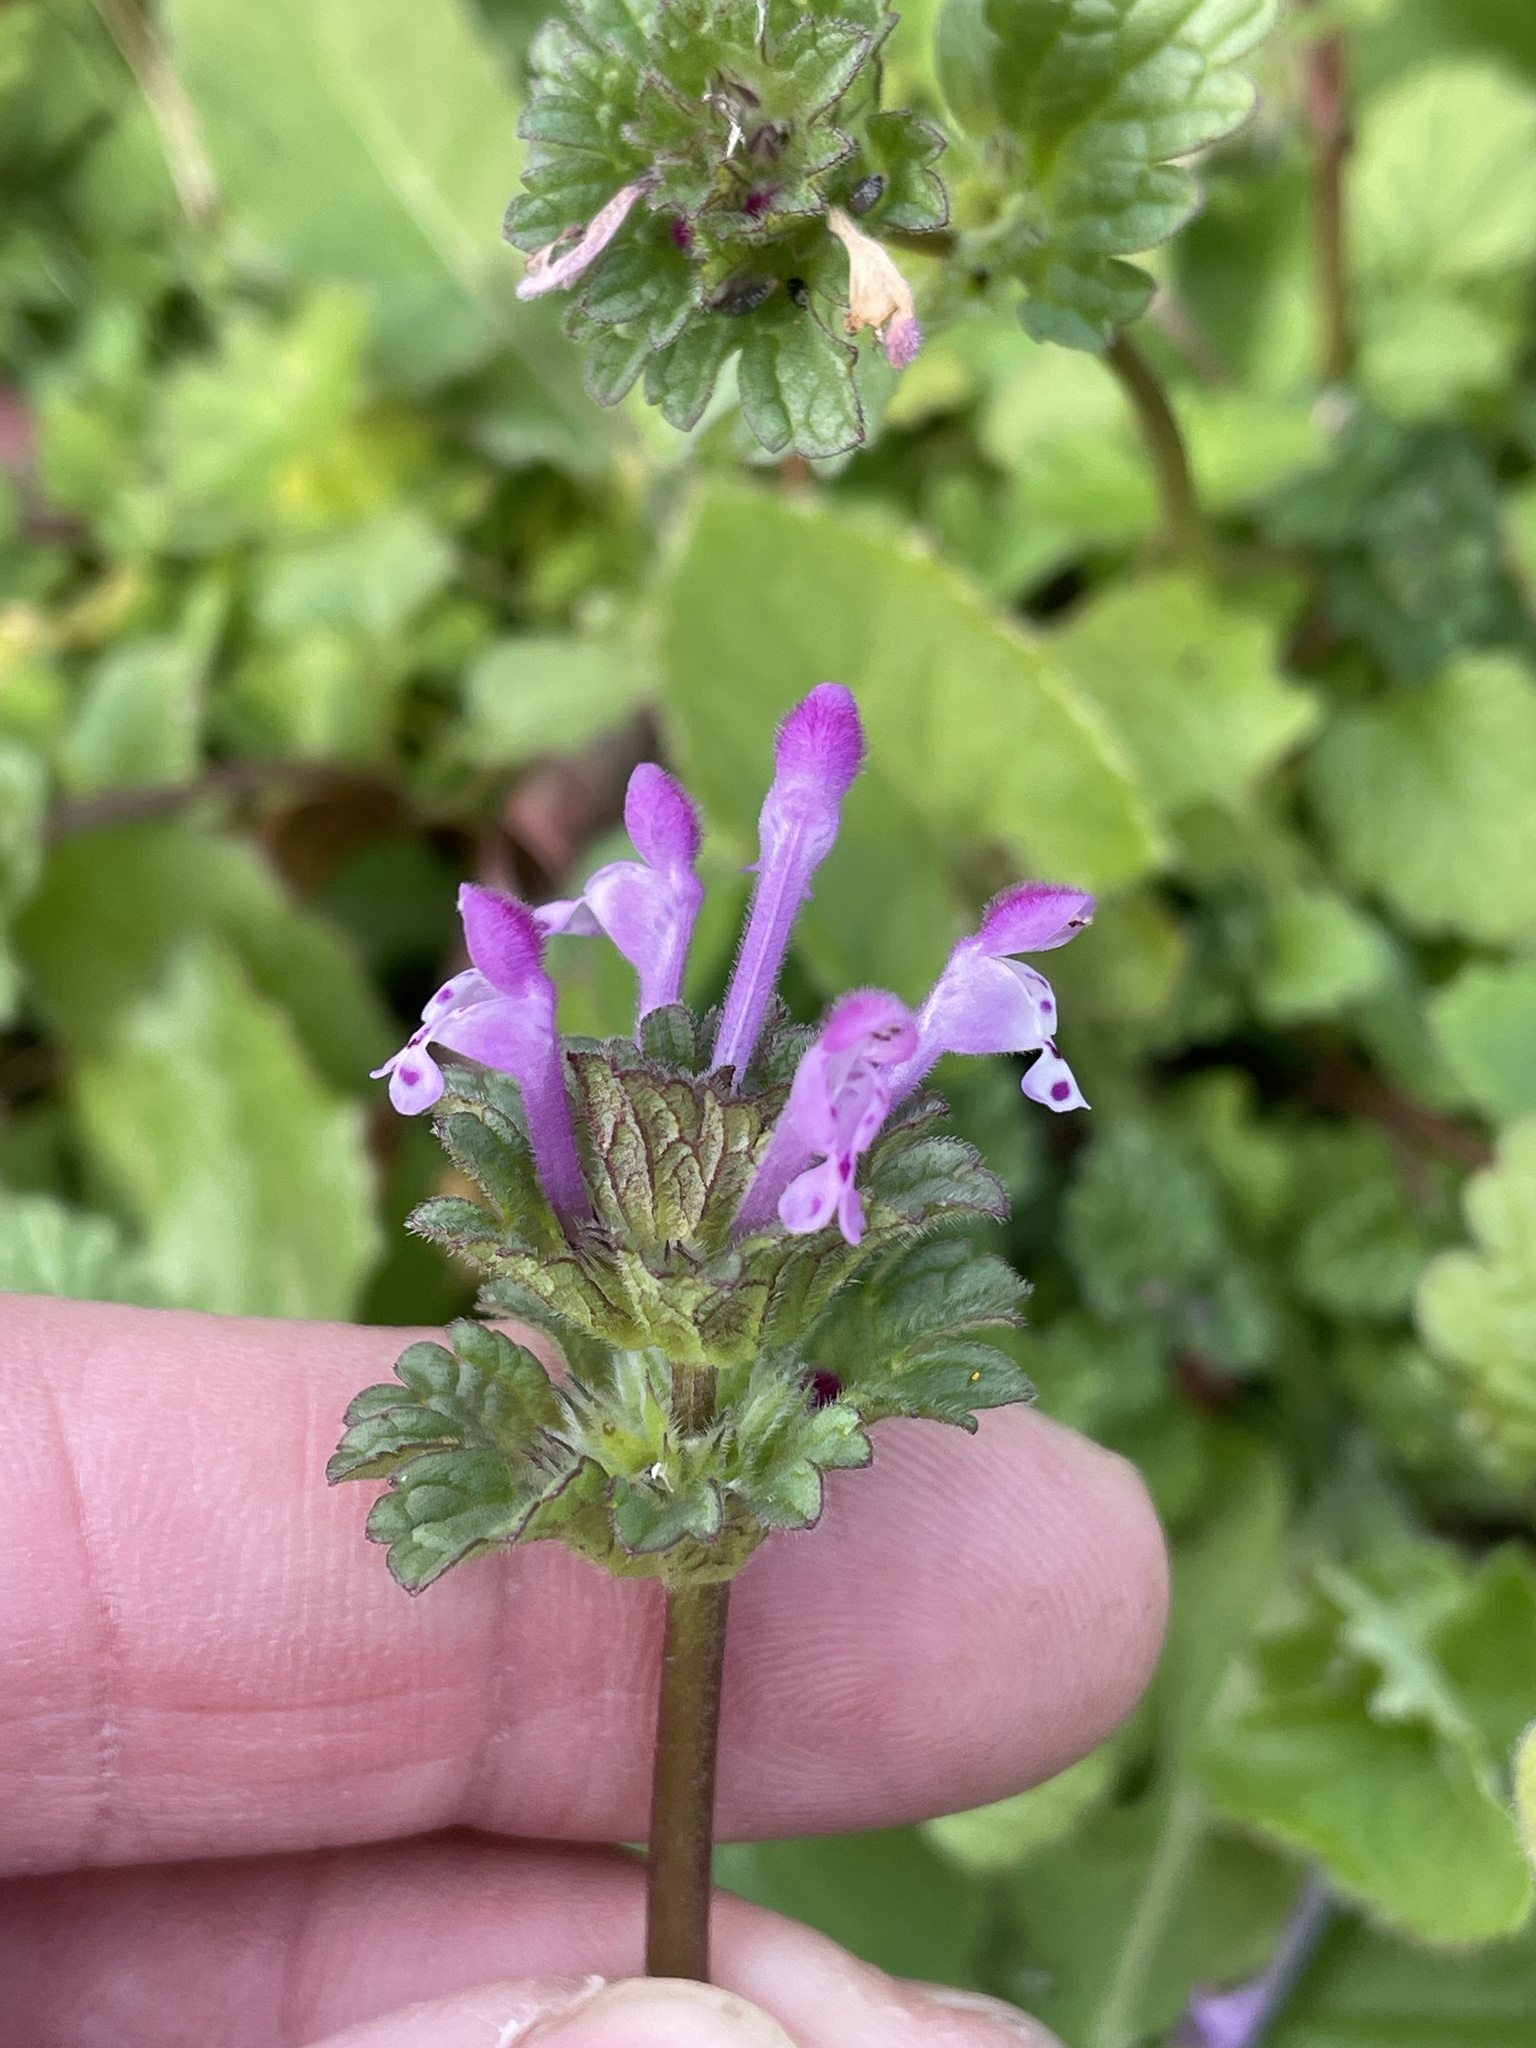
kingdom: Plantae
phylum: Tracheophyta
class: Magnoliopsida
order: Lamiales
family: Lamiaceae
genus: Lamium
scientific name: Lamium amplexicaule
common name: Henbit dead-nettle
